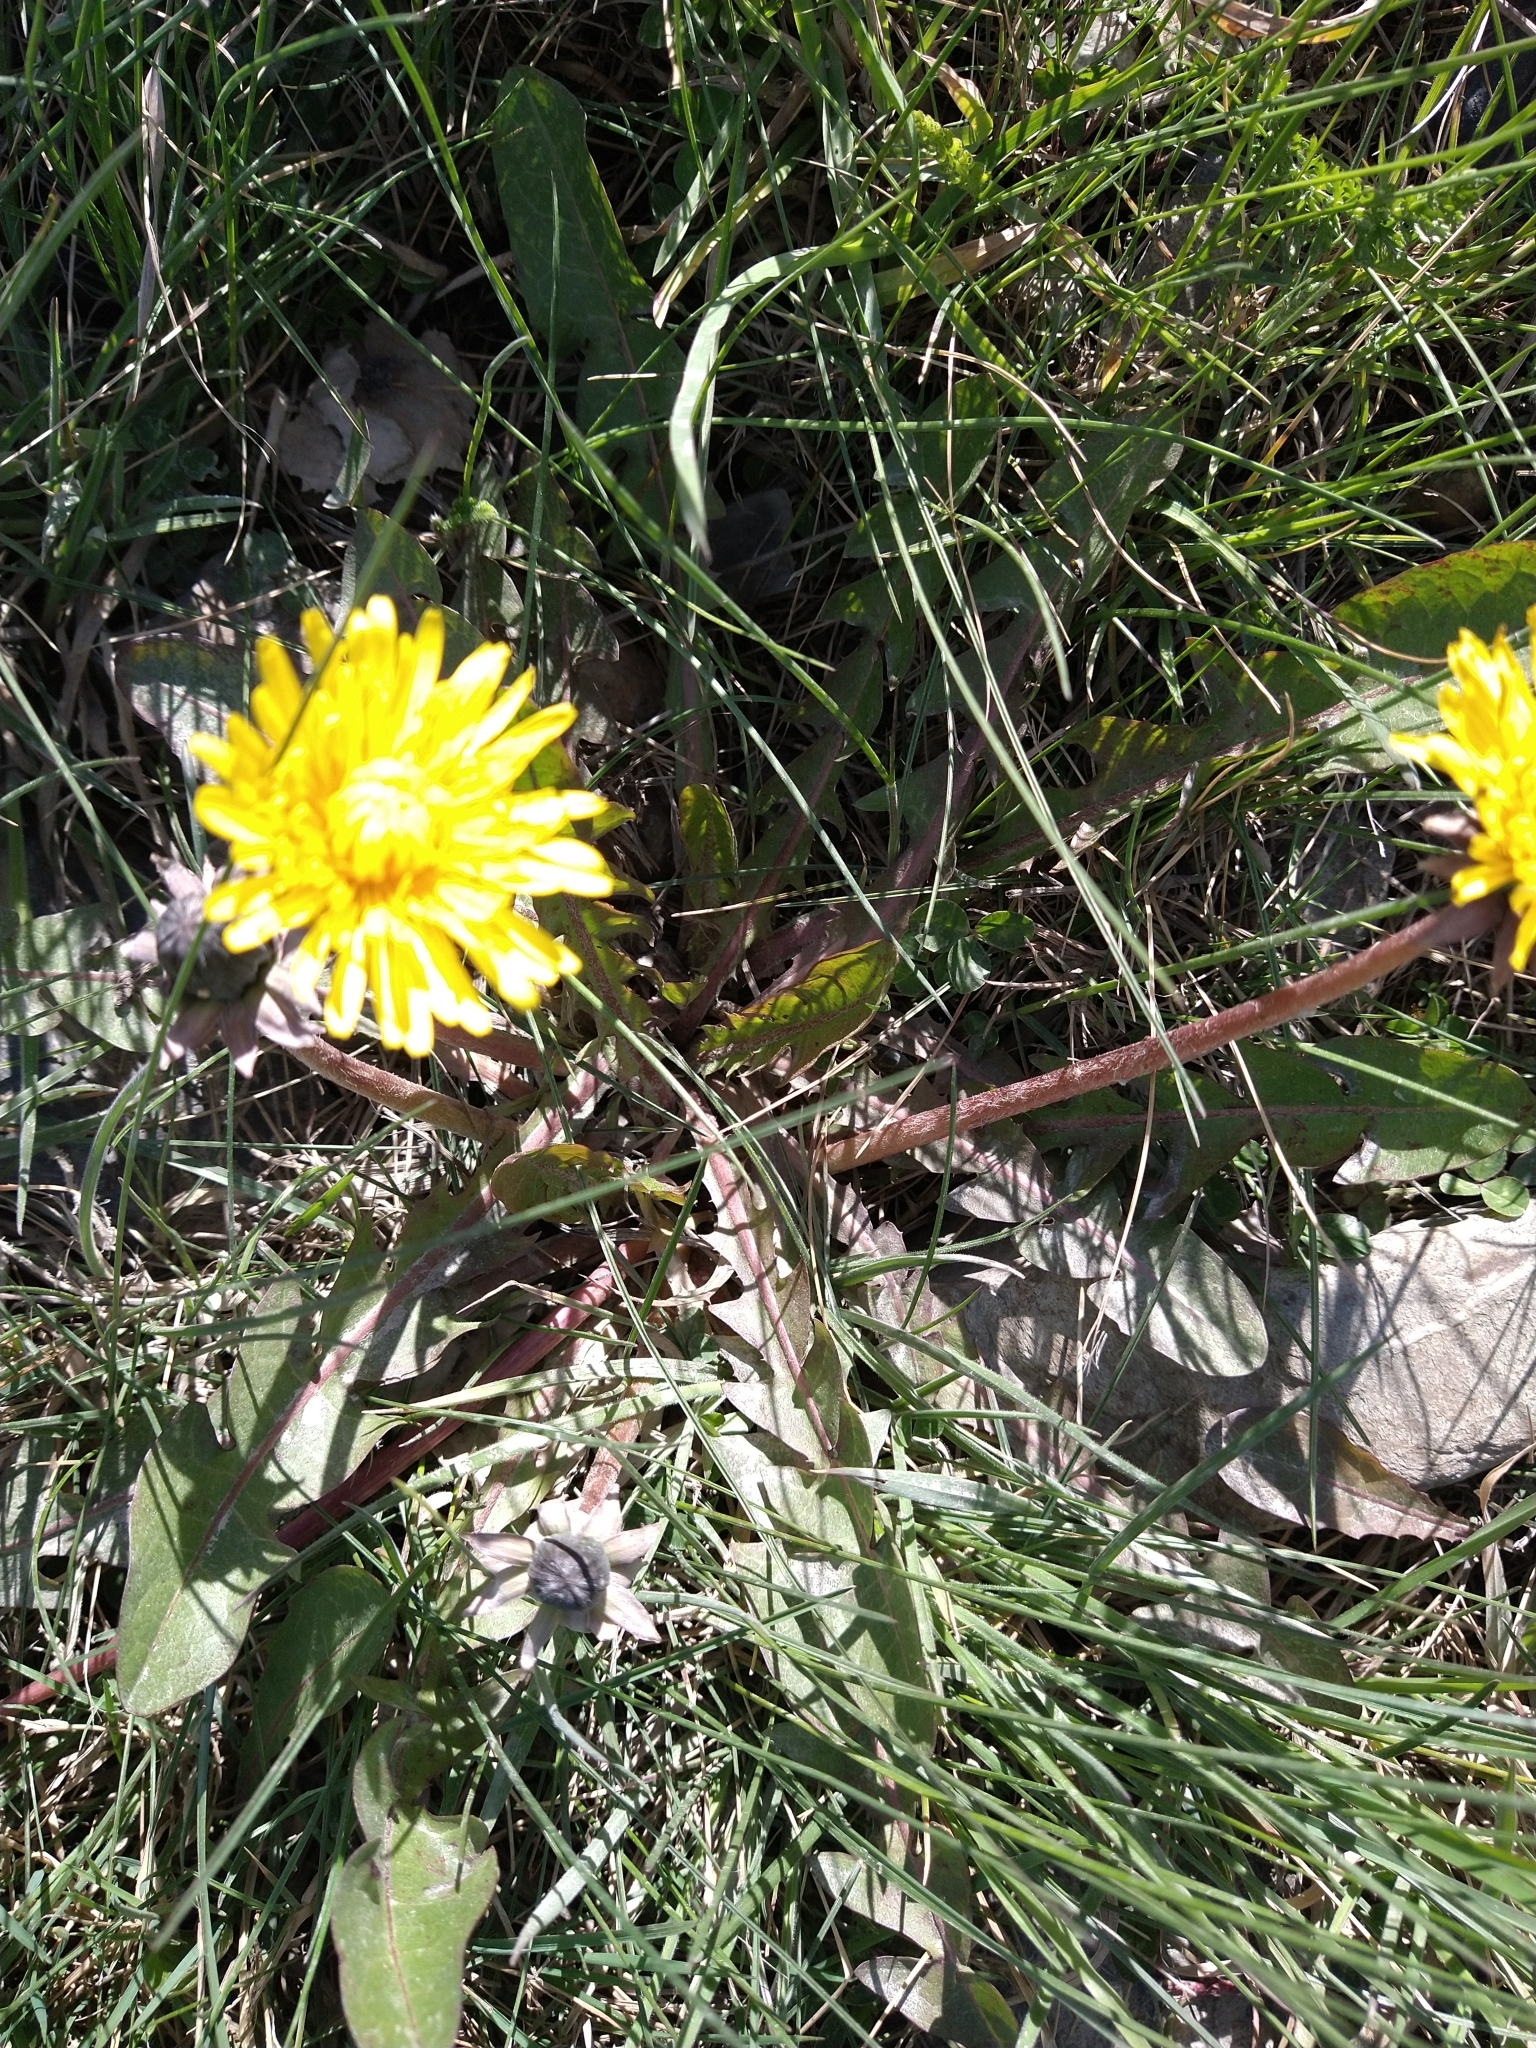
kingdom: Plantae
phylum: Tracheophyta
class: Magnoliopsida
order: Asterales
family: Asteraceae
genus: Taraxacum
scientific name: Taraxacum officinale
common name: Common dandelion
